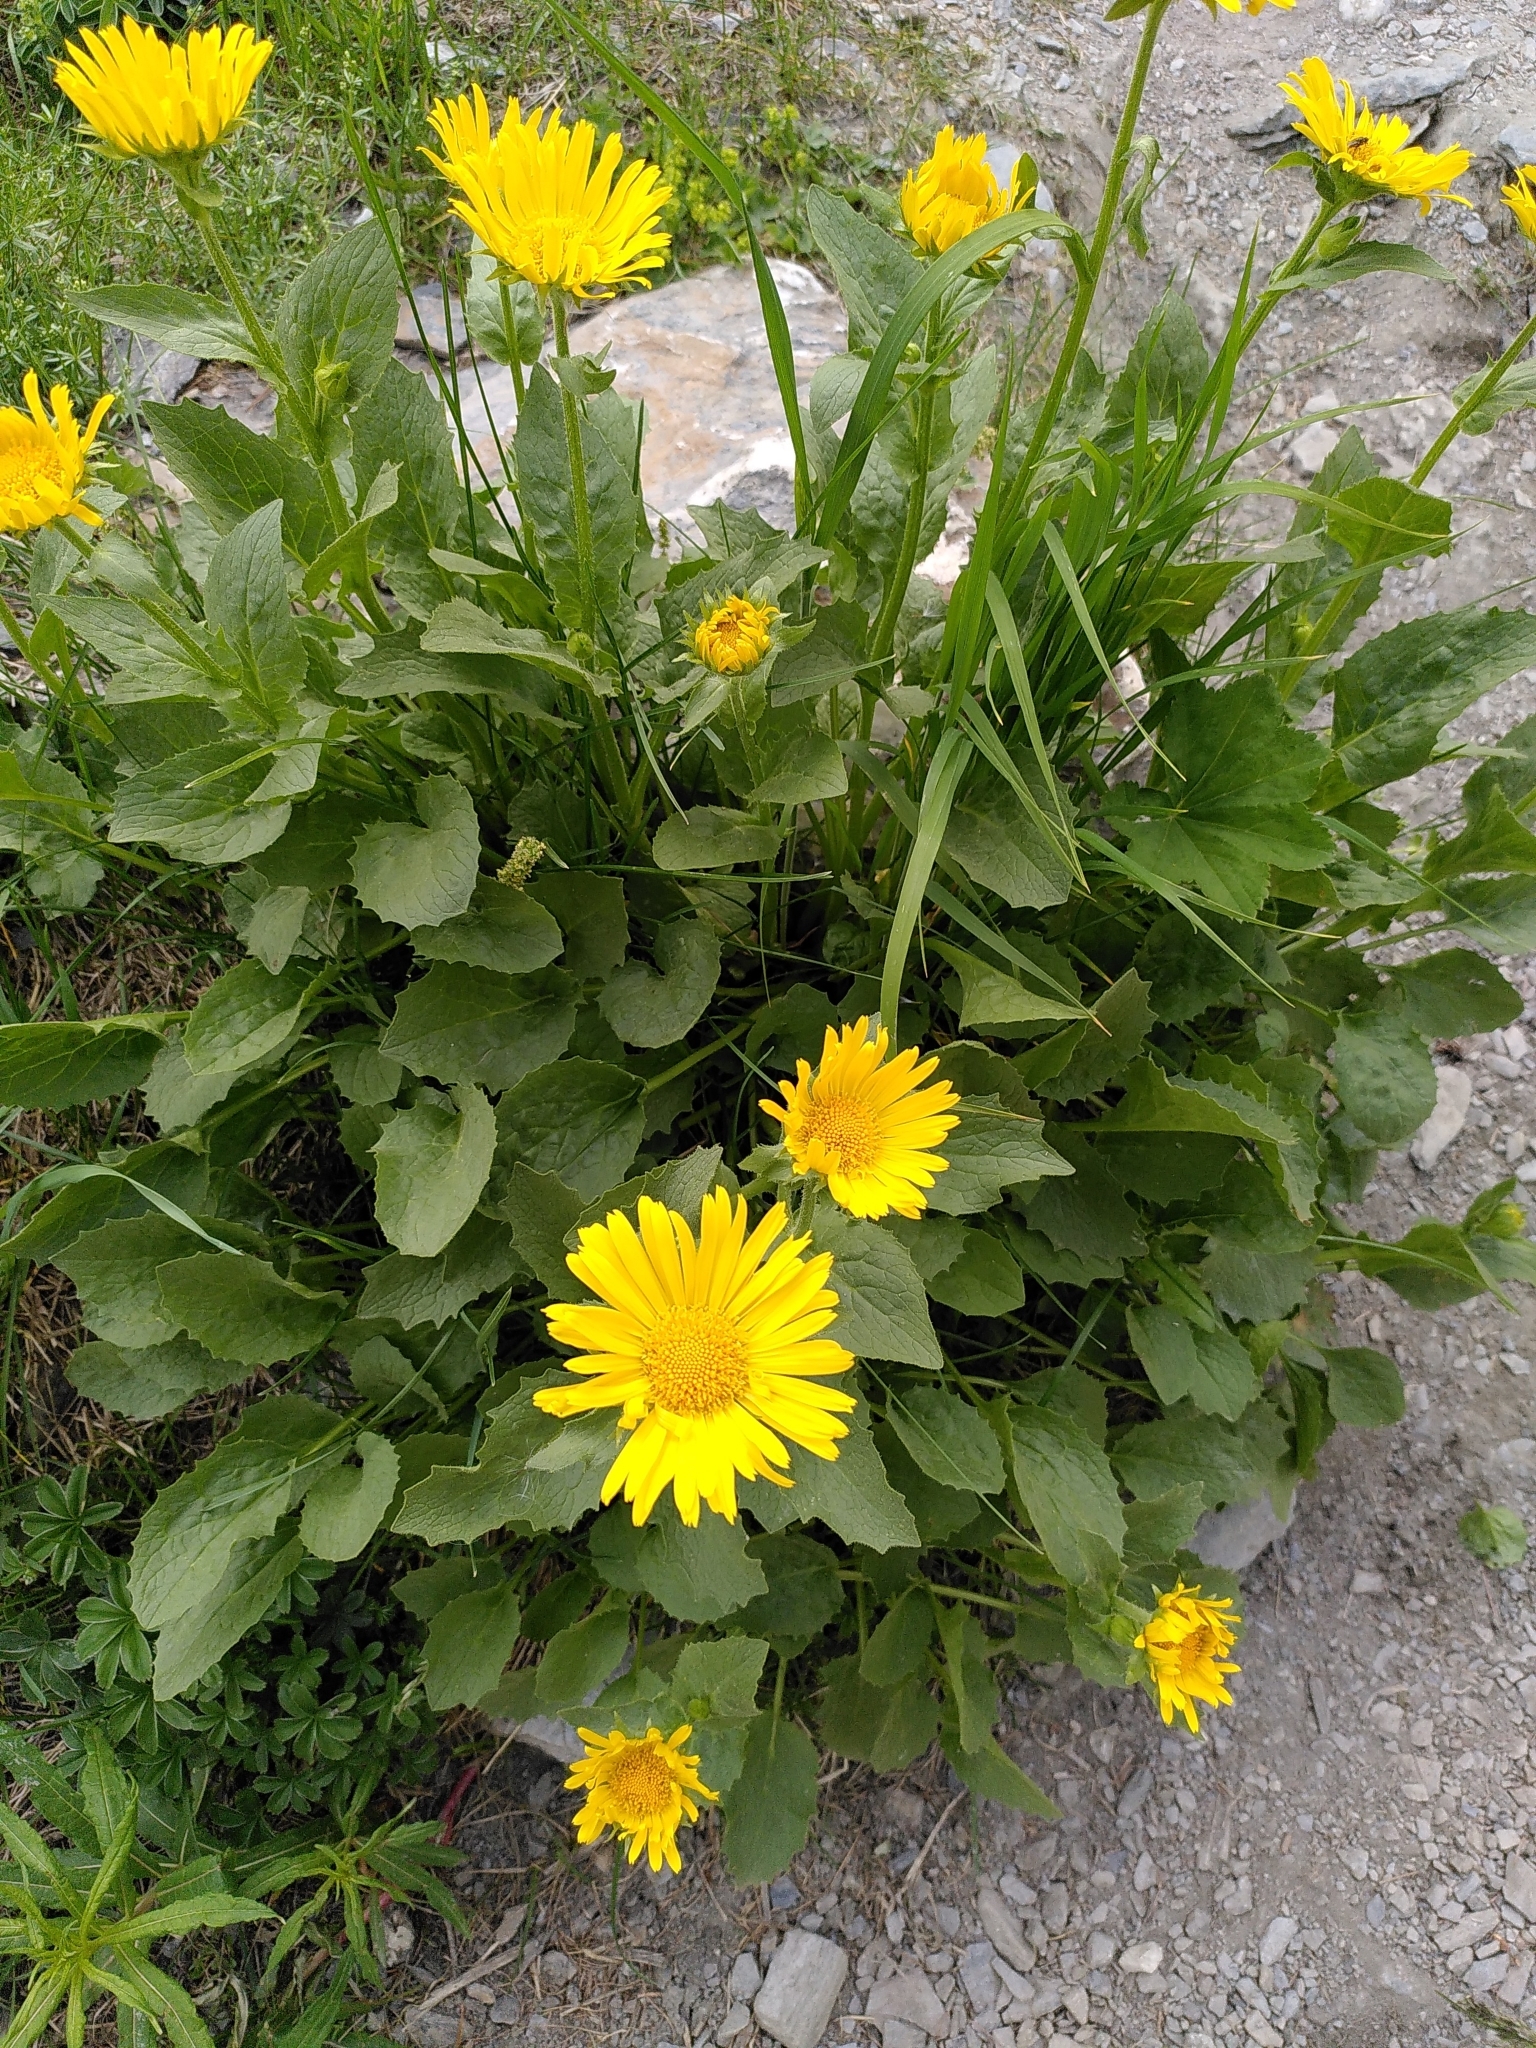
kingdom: Plantae
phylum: Tracheophyta
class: Magnoliopsida
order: Asterales
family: Asteraceae
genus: Doronicum
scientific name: Doronicum grandiflorum
